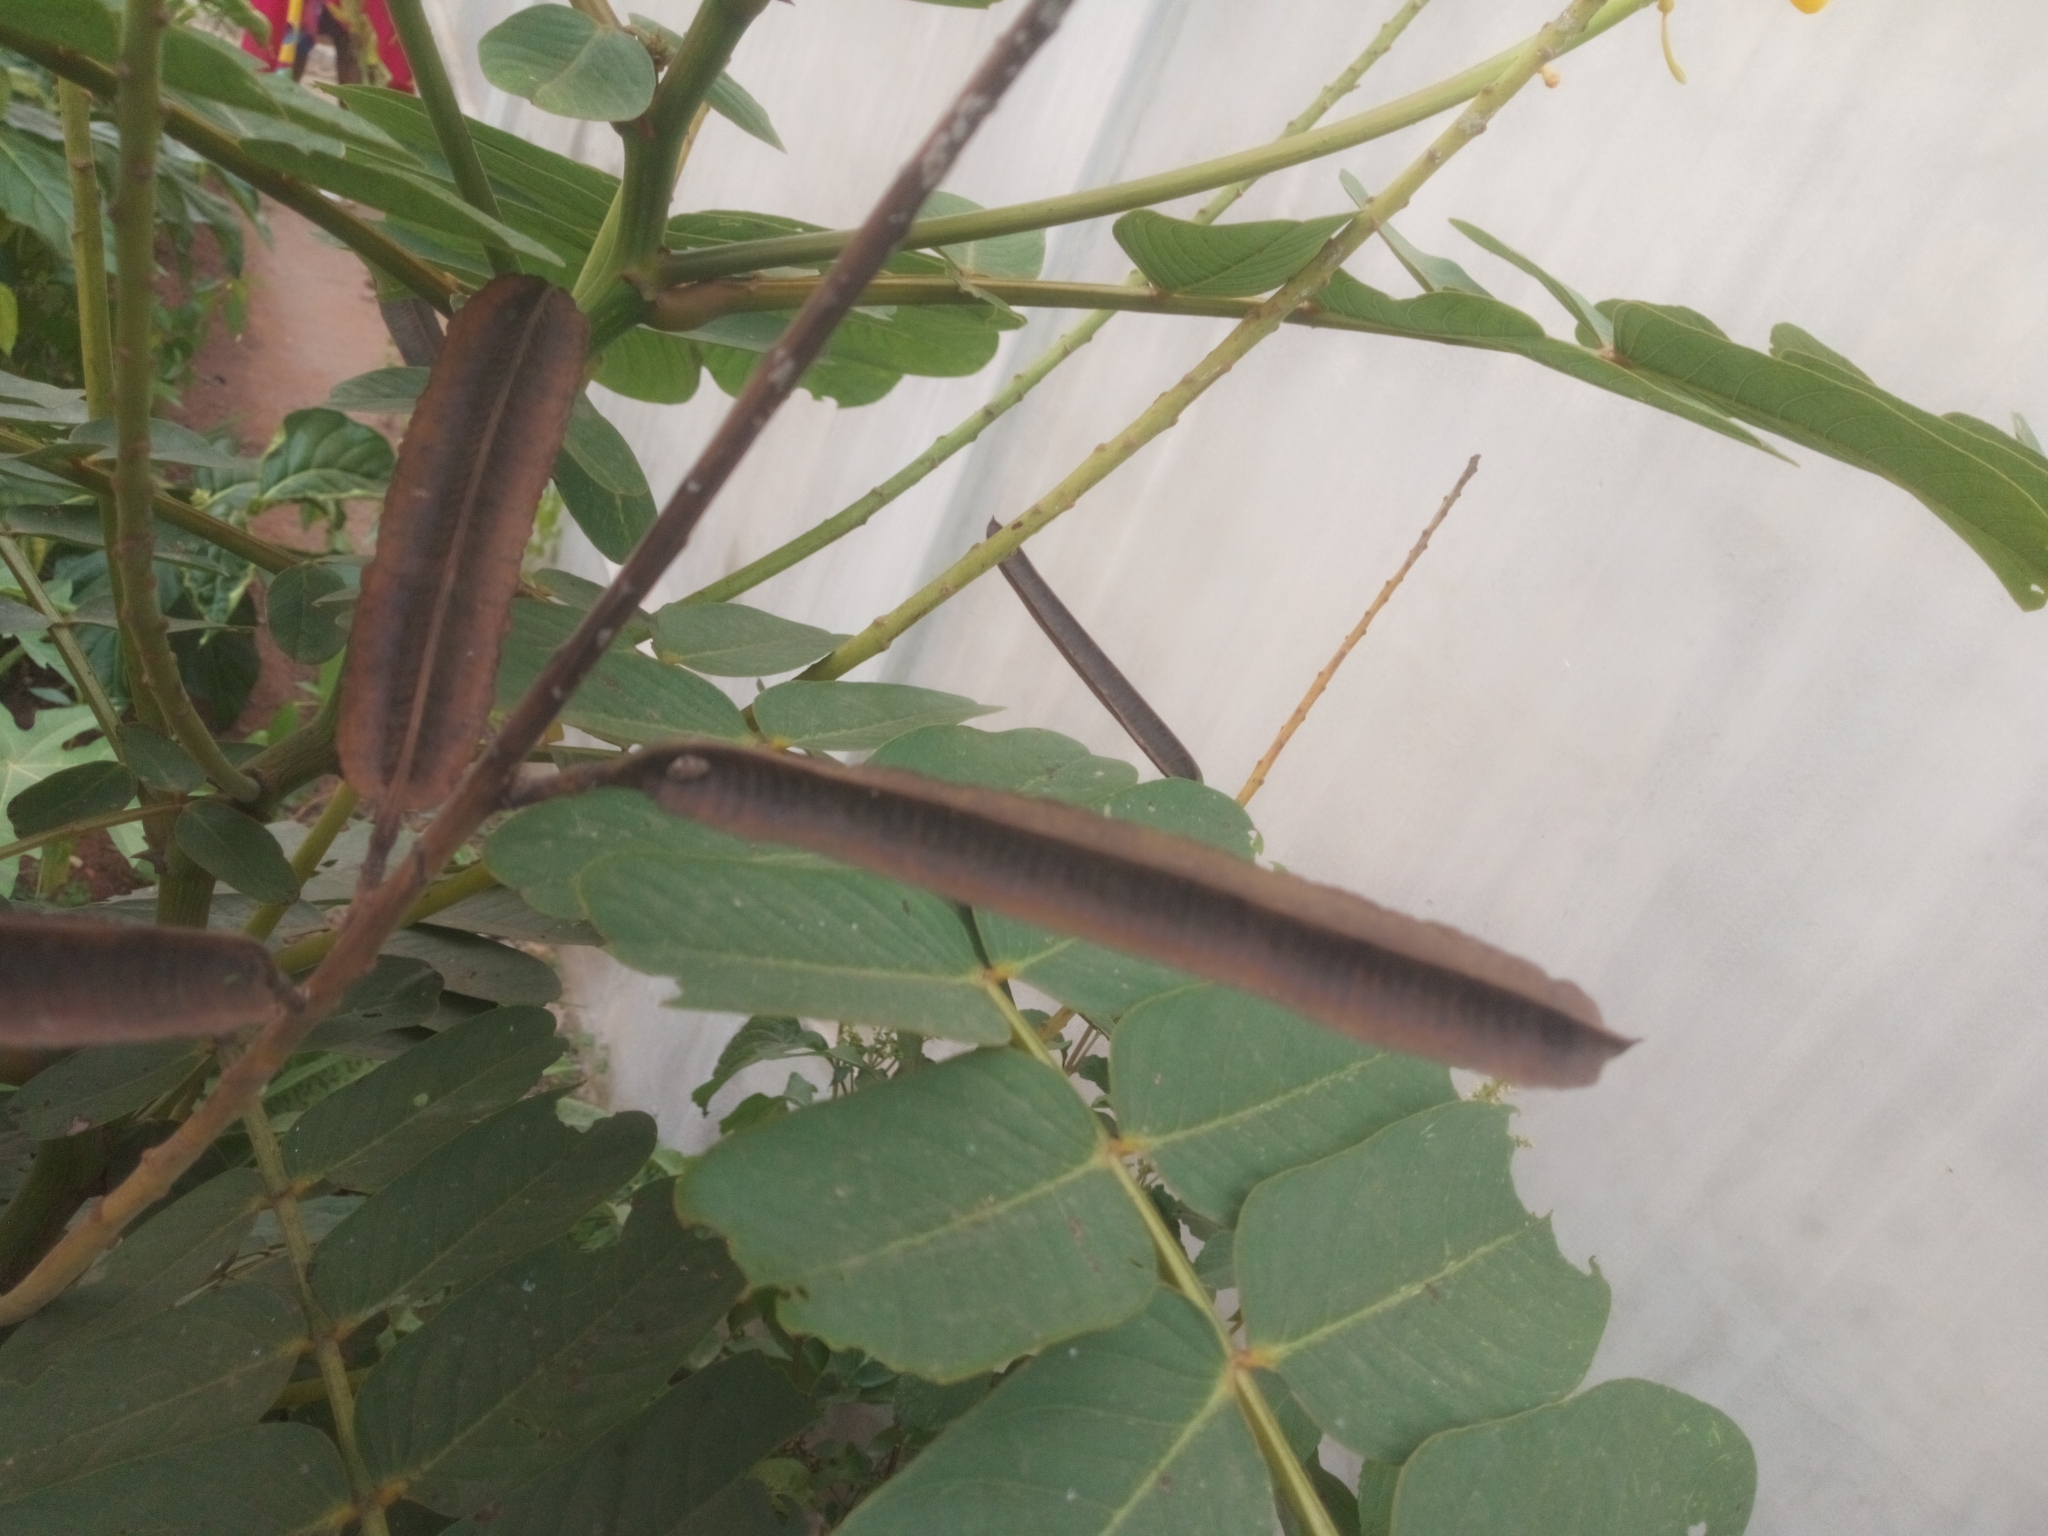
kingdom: Plantae
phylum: Tracheophyta
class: Magnoliopsida
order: Fabales
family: Fabaceae
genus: Senna
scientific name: Senna alata
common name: Emperor's candlesticks
